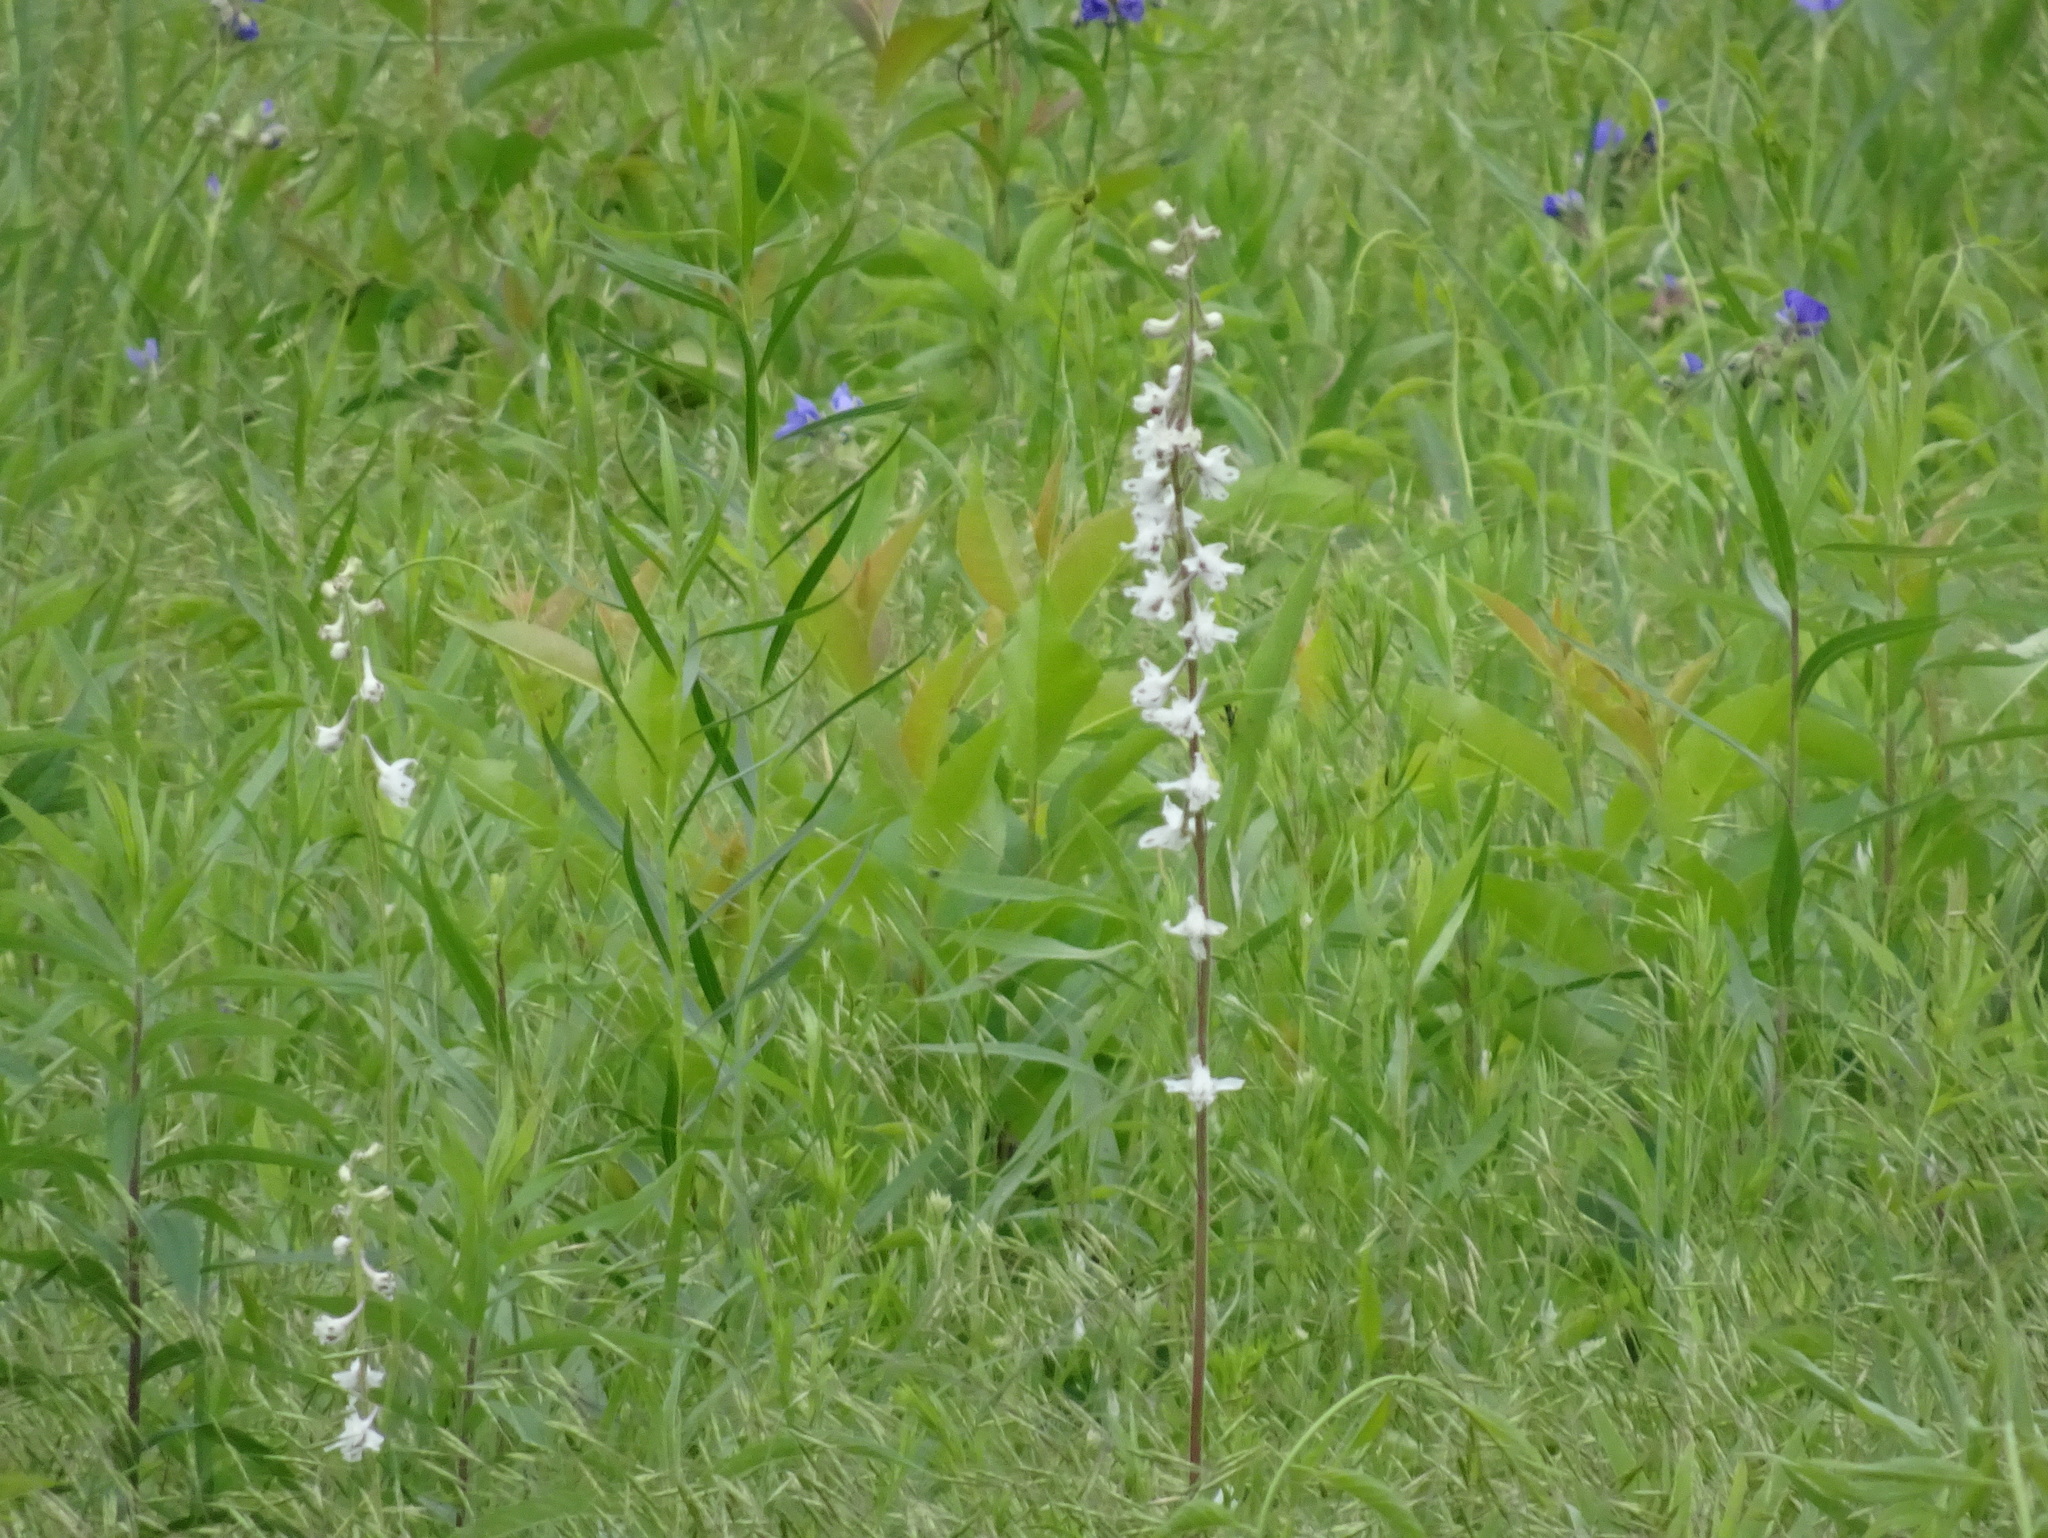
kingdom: Plantae
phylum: Tracheophyta
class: Magnoliopsida
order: Ranunculales
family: Ranunculaceae
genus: Delphinium
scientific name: Delphinium carolinianum
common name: Carolina larkspur
